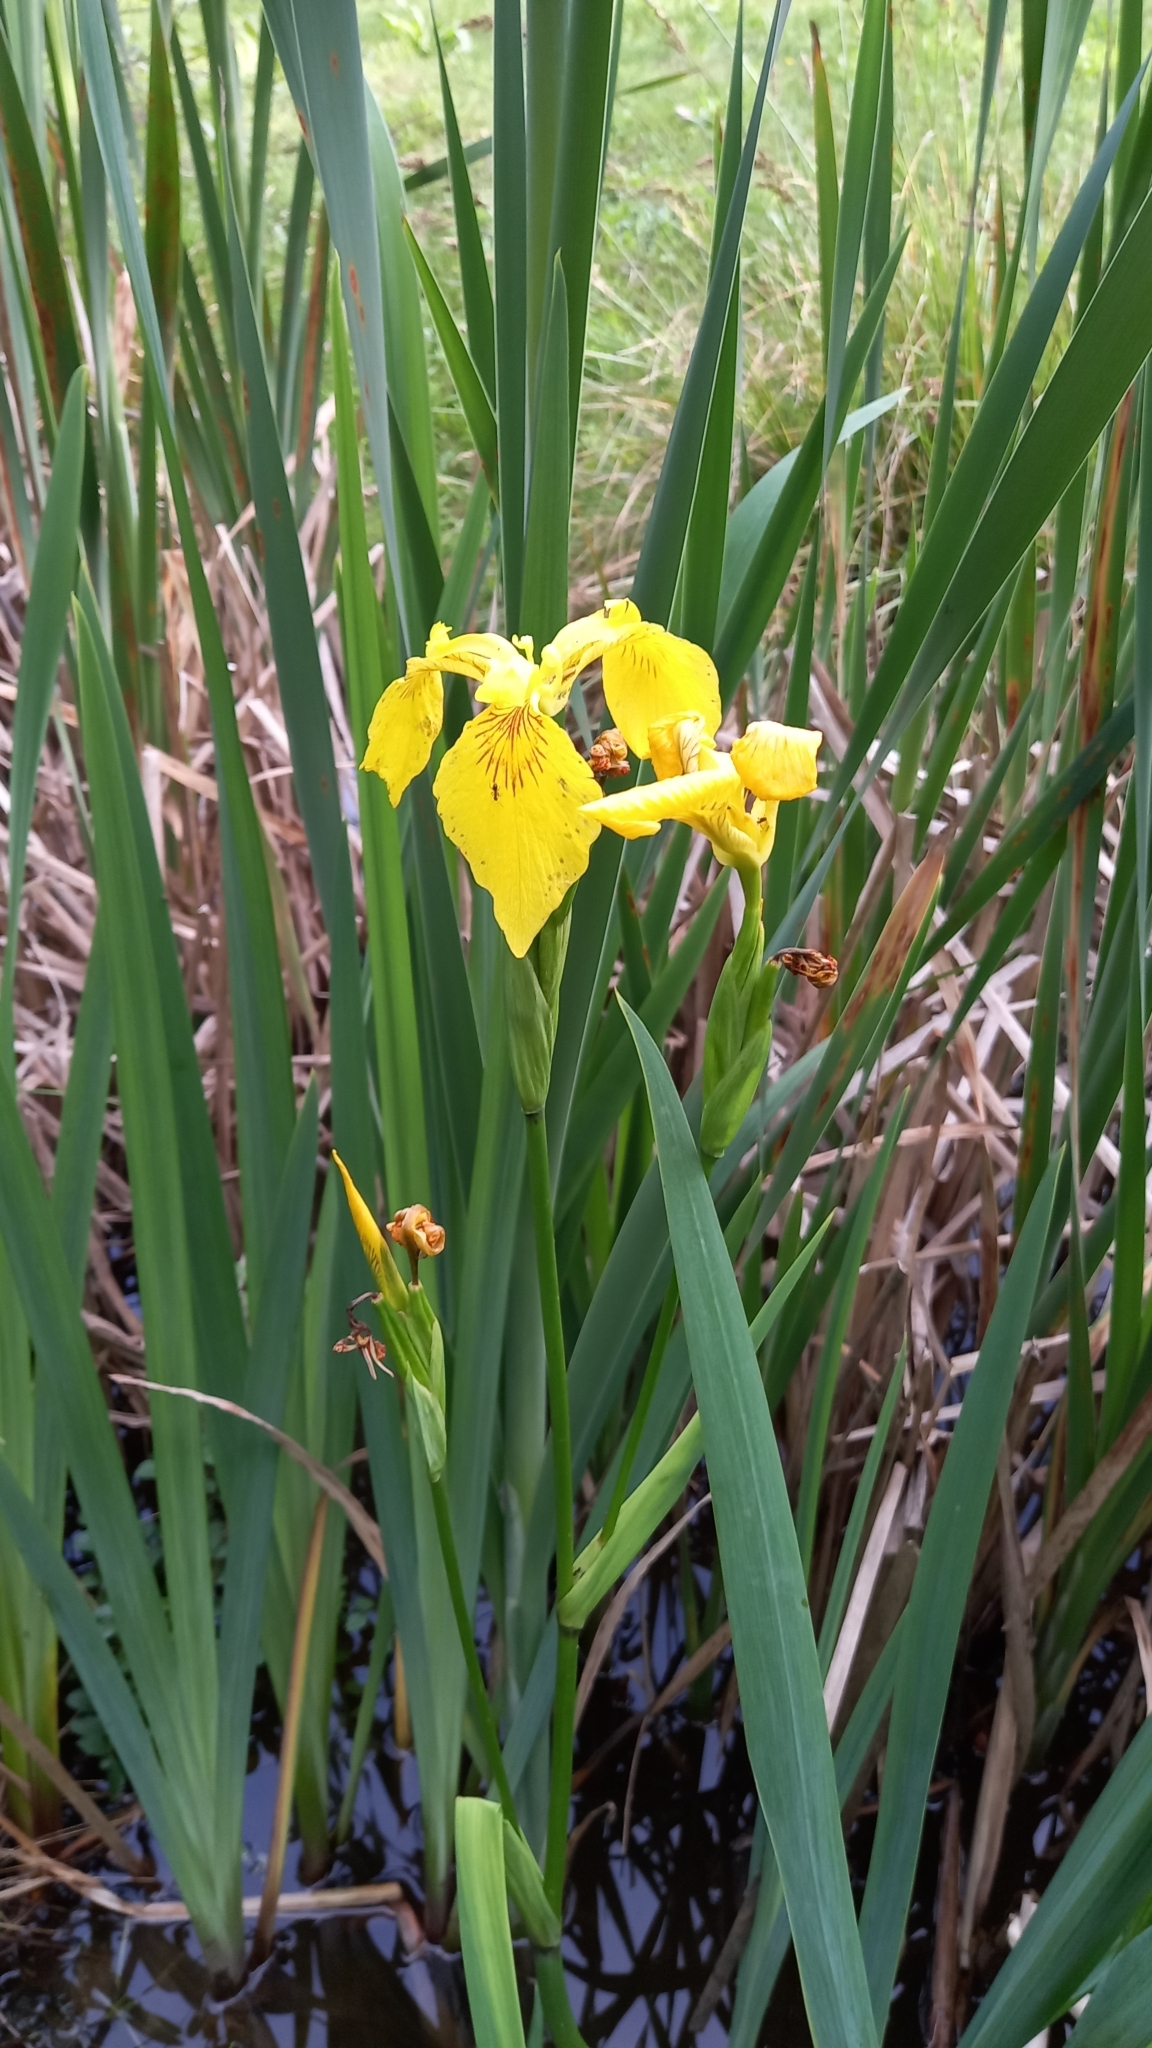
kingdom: Plantae
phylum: Tracheophyta
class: Liliopsida
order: Asparagales
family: Iridaceae
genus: Iris
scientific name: Iris pseudacorus
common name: Yellow flag
